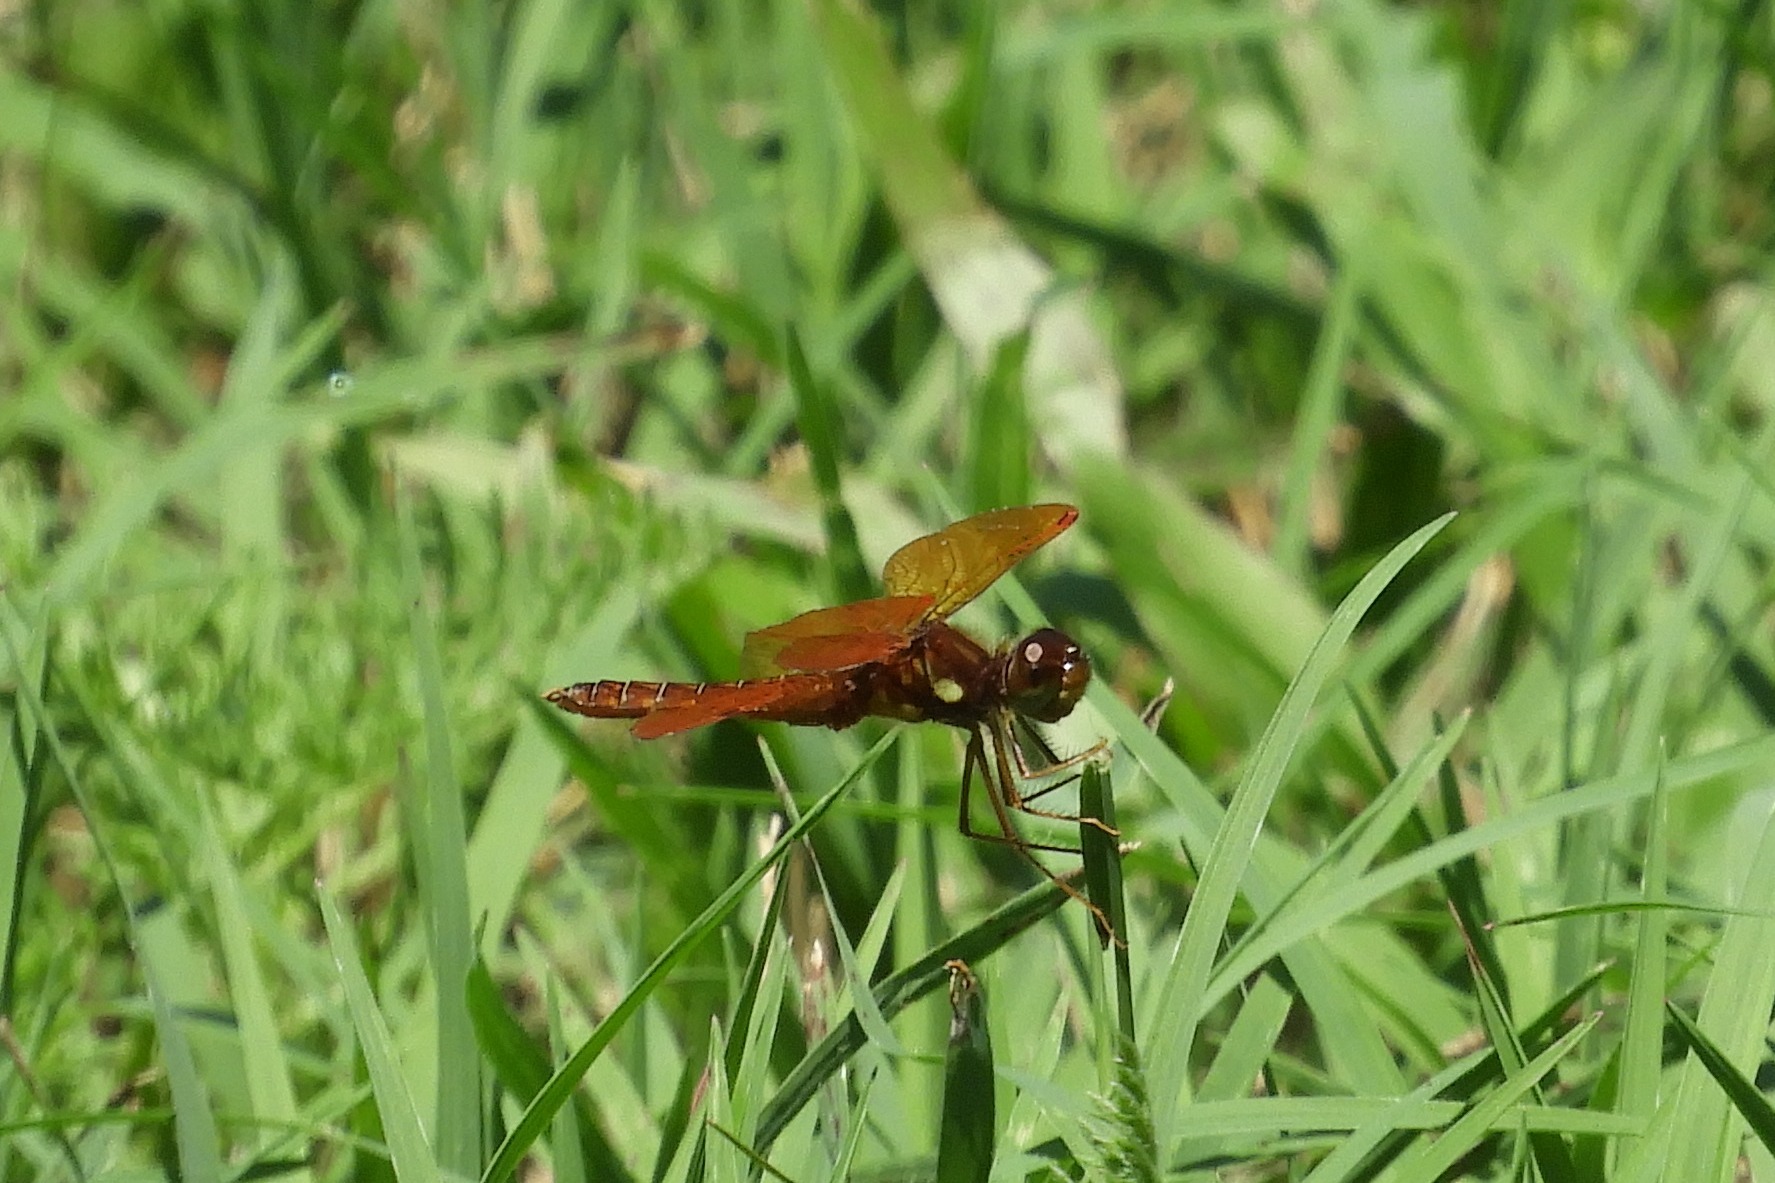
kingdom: Animalia
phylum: Arthropoda
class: Insecta
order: Odonata
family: Libellulidae
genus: Perithemis
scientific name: Perithemis tenera
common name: Eastern amberwing
